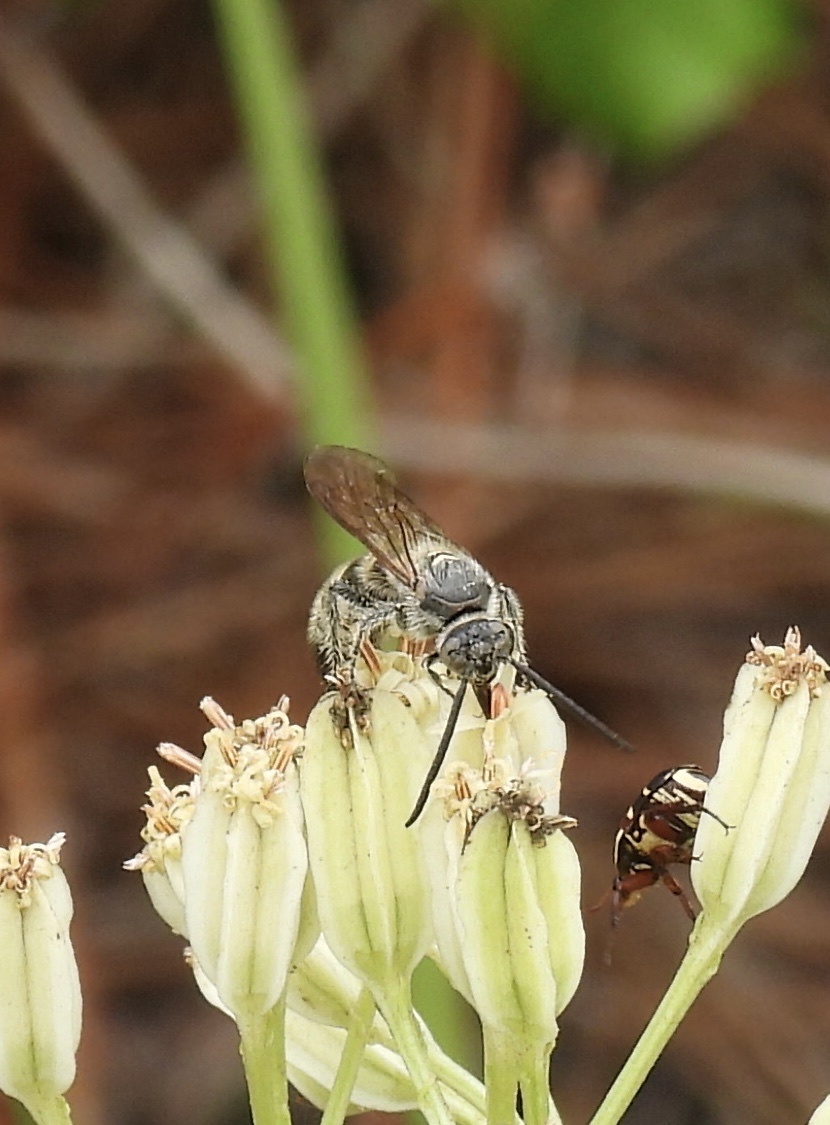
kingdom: Animalia
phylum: Arthropoda
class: Insecta
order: Hymenoptera
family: Scoliidae
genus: Dielis
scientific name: Dielis
